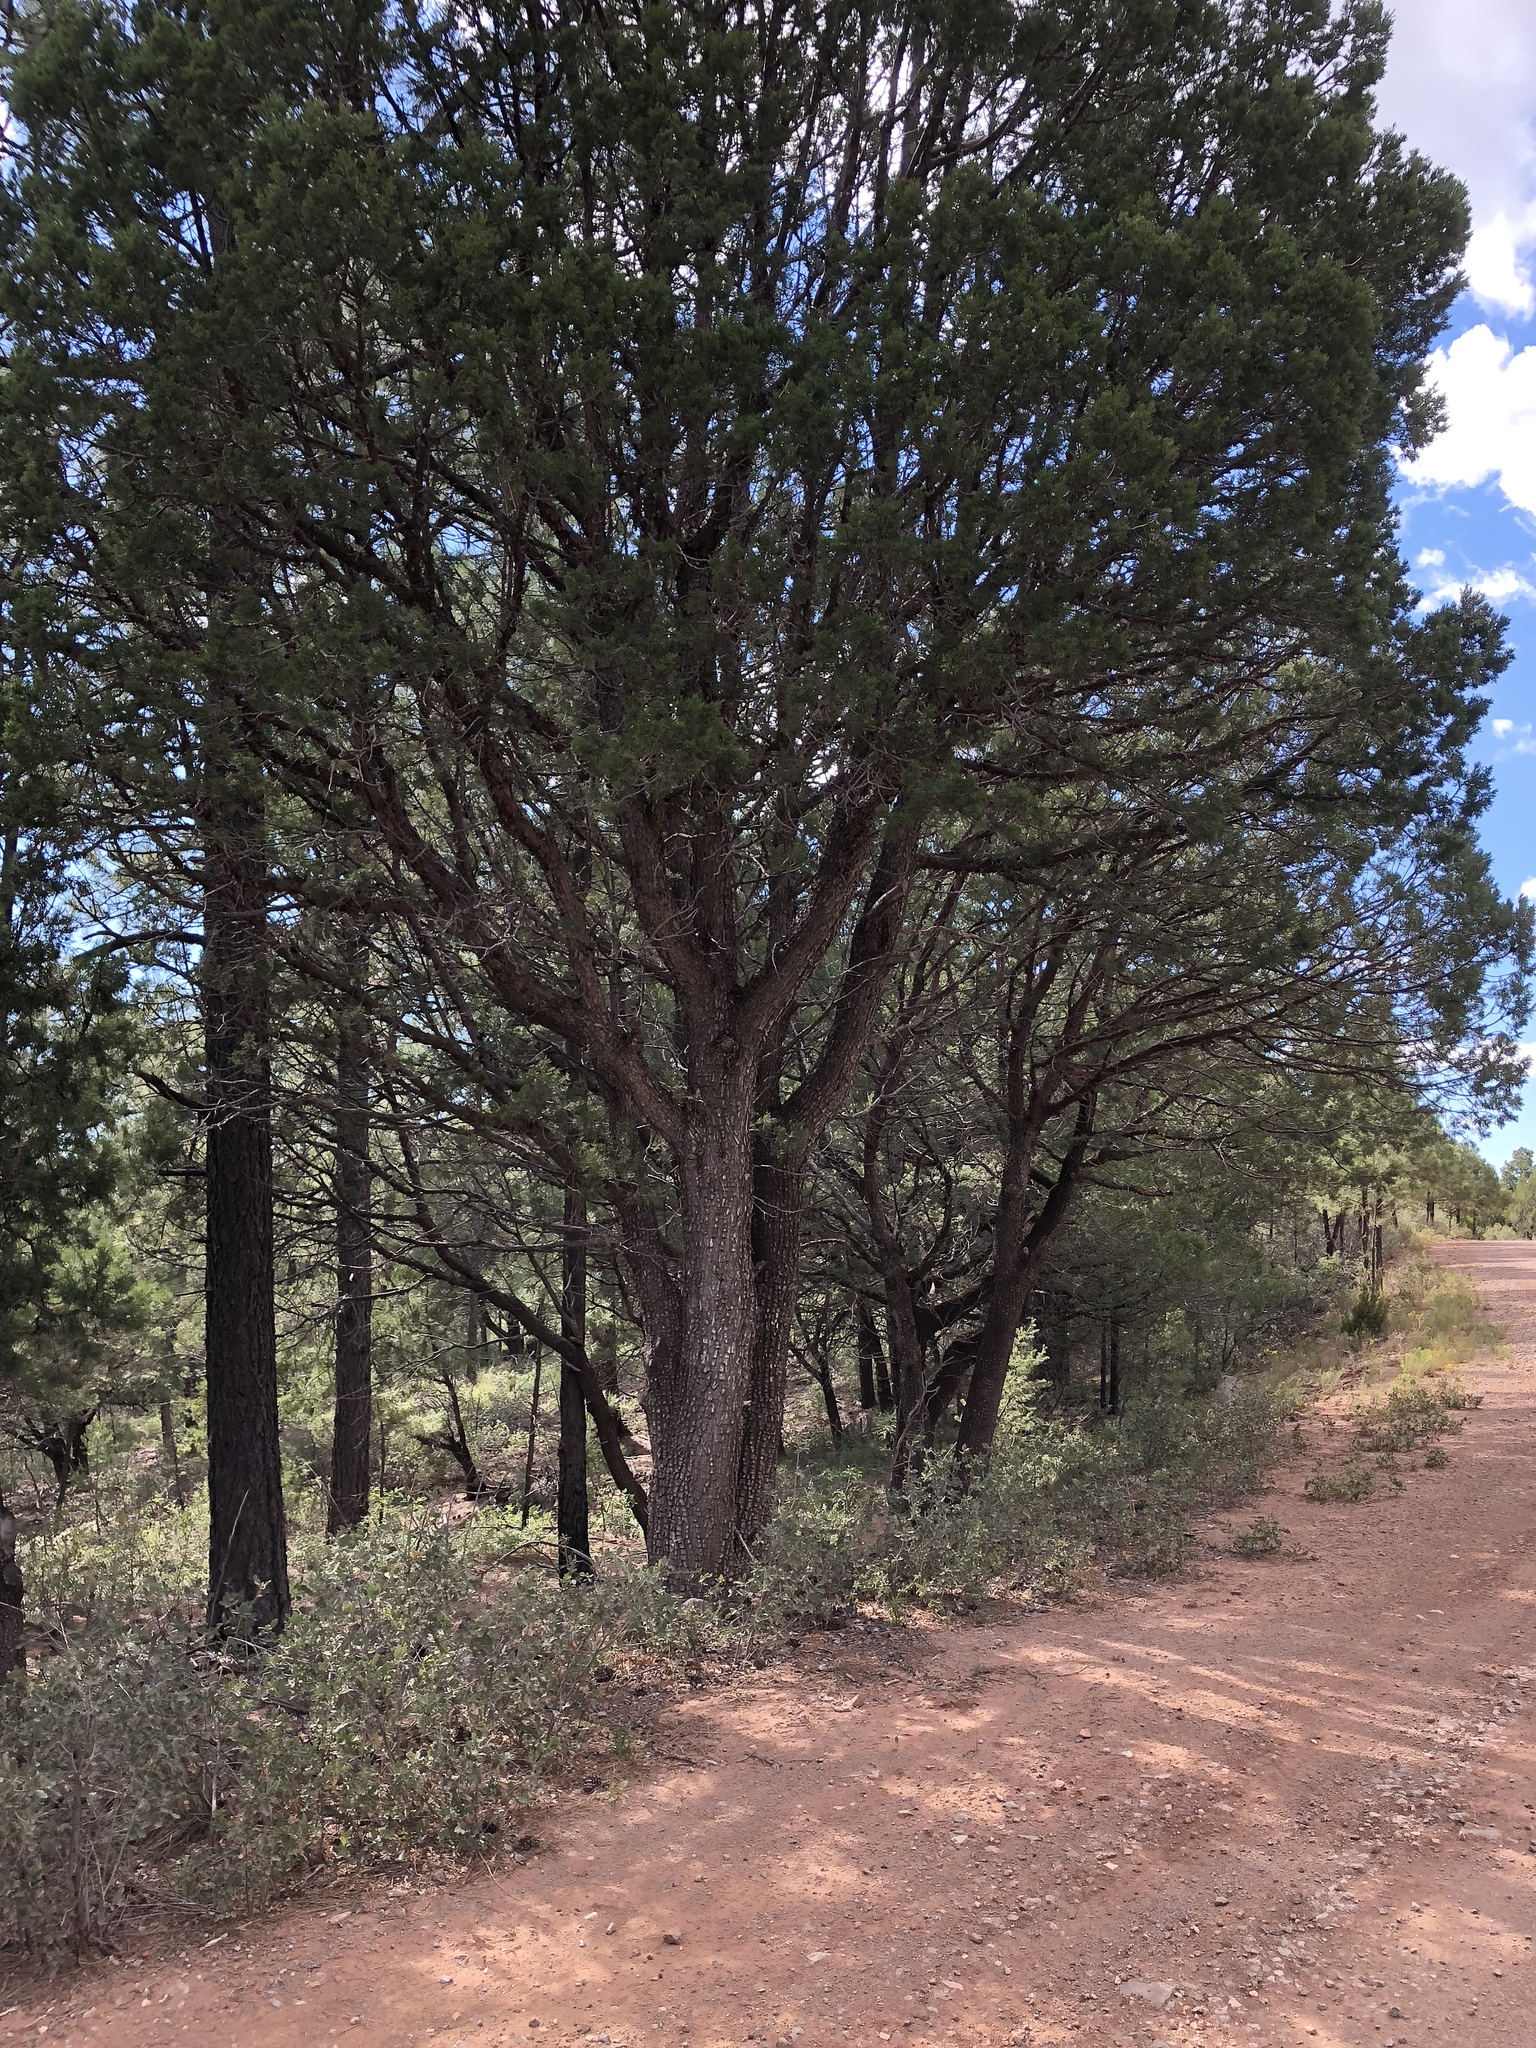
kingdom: Plantae
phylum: Tracheophyta
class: Pinopsida
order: Pinales
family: Cupressaceae
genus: Juniperus
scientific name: Juniperus deppeana
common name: Alligator juniper
